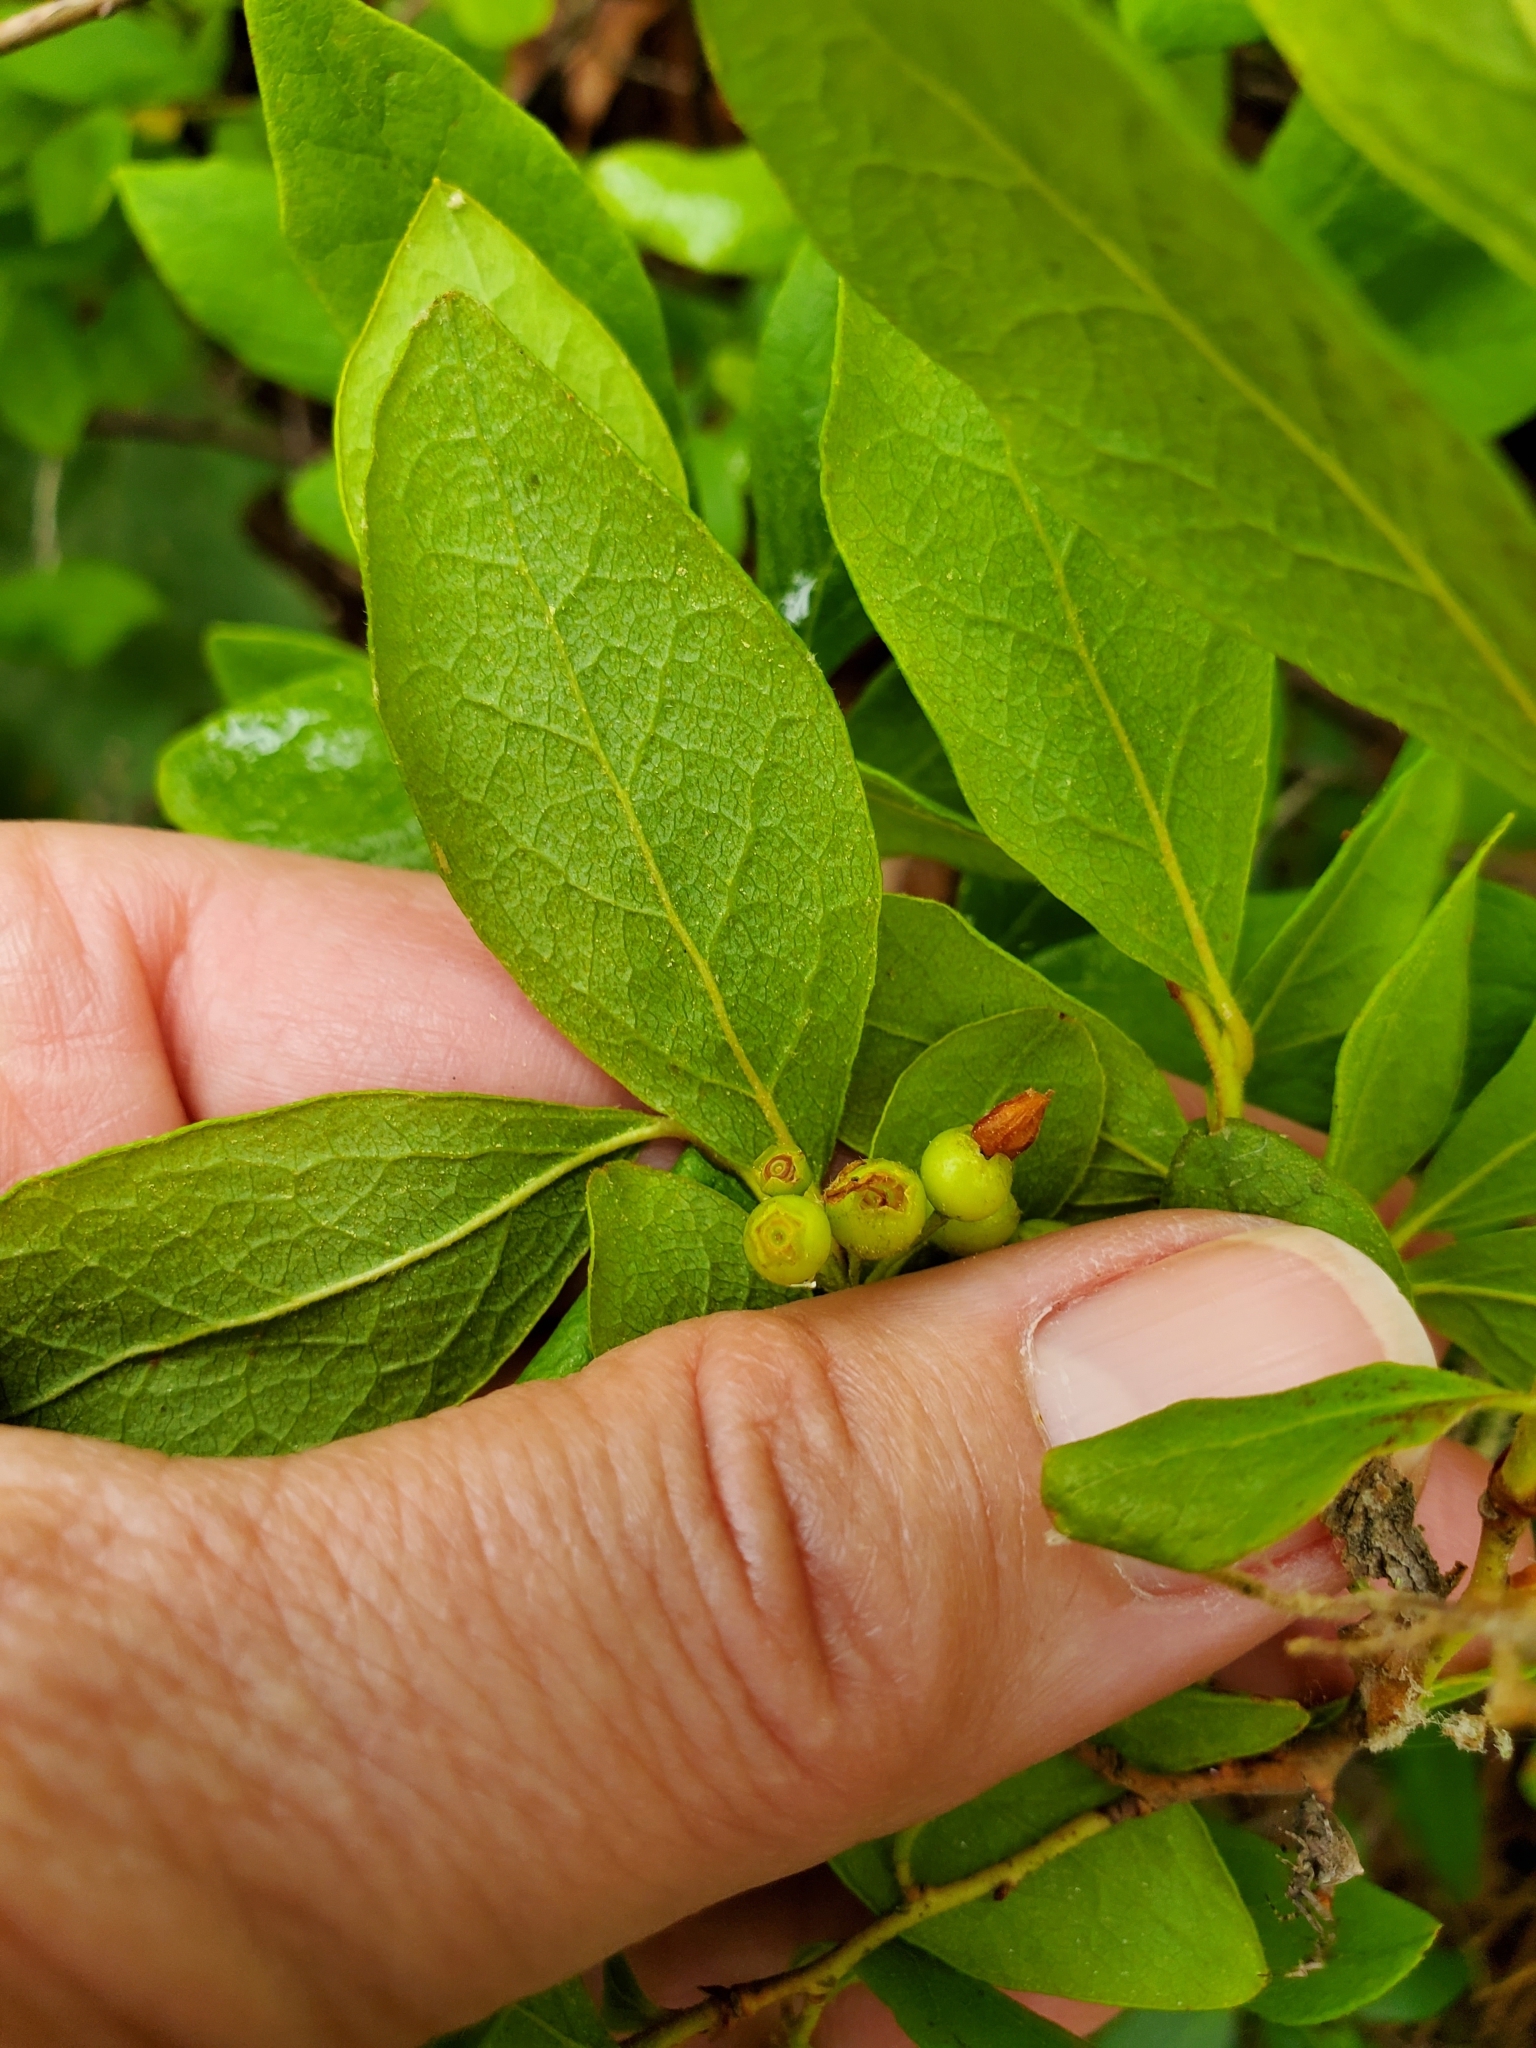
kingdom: Plantae
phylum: Tracheophyta
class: Magnoliopsida
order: Ericales
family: Ericaceae
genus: Gaylussacia
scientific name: Gaylussacia baccata
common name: Black huckleberry
